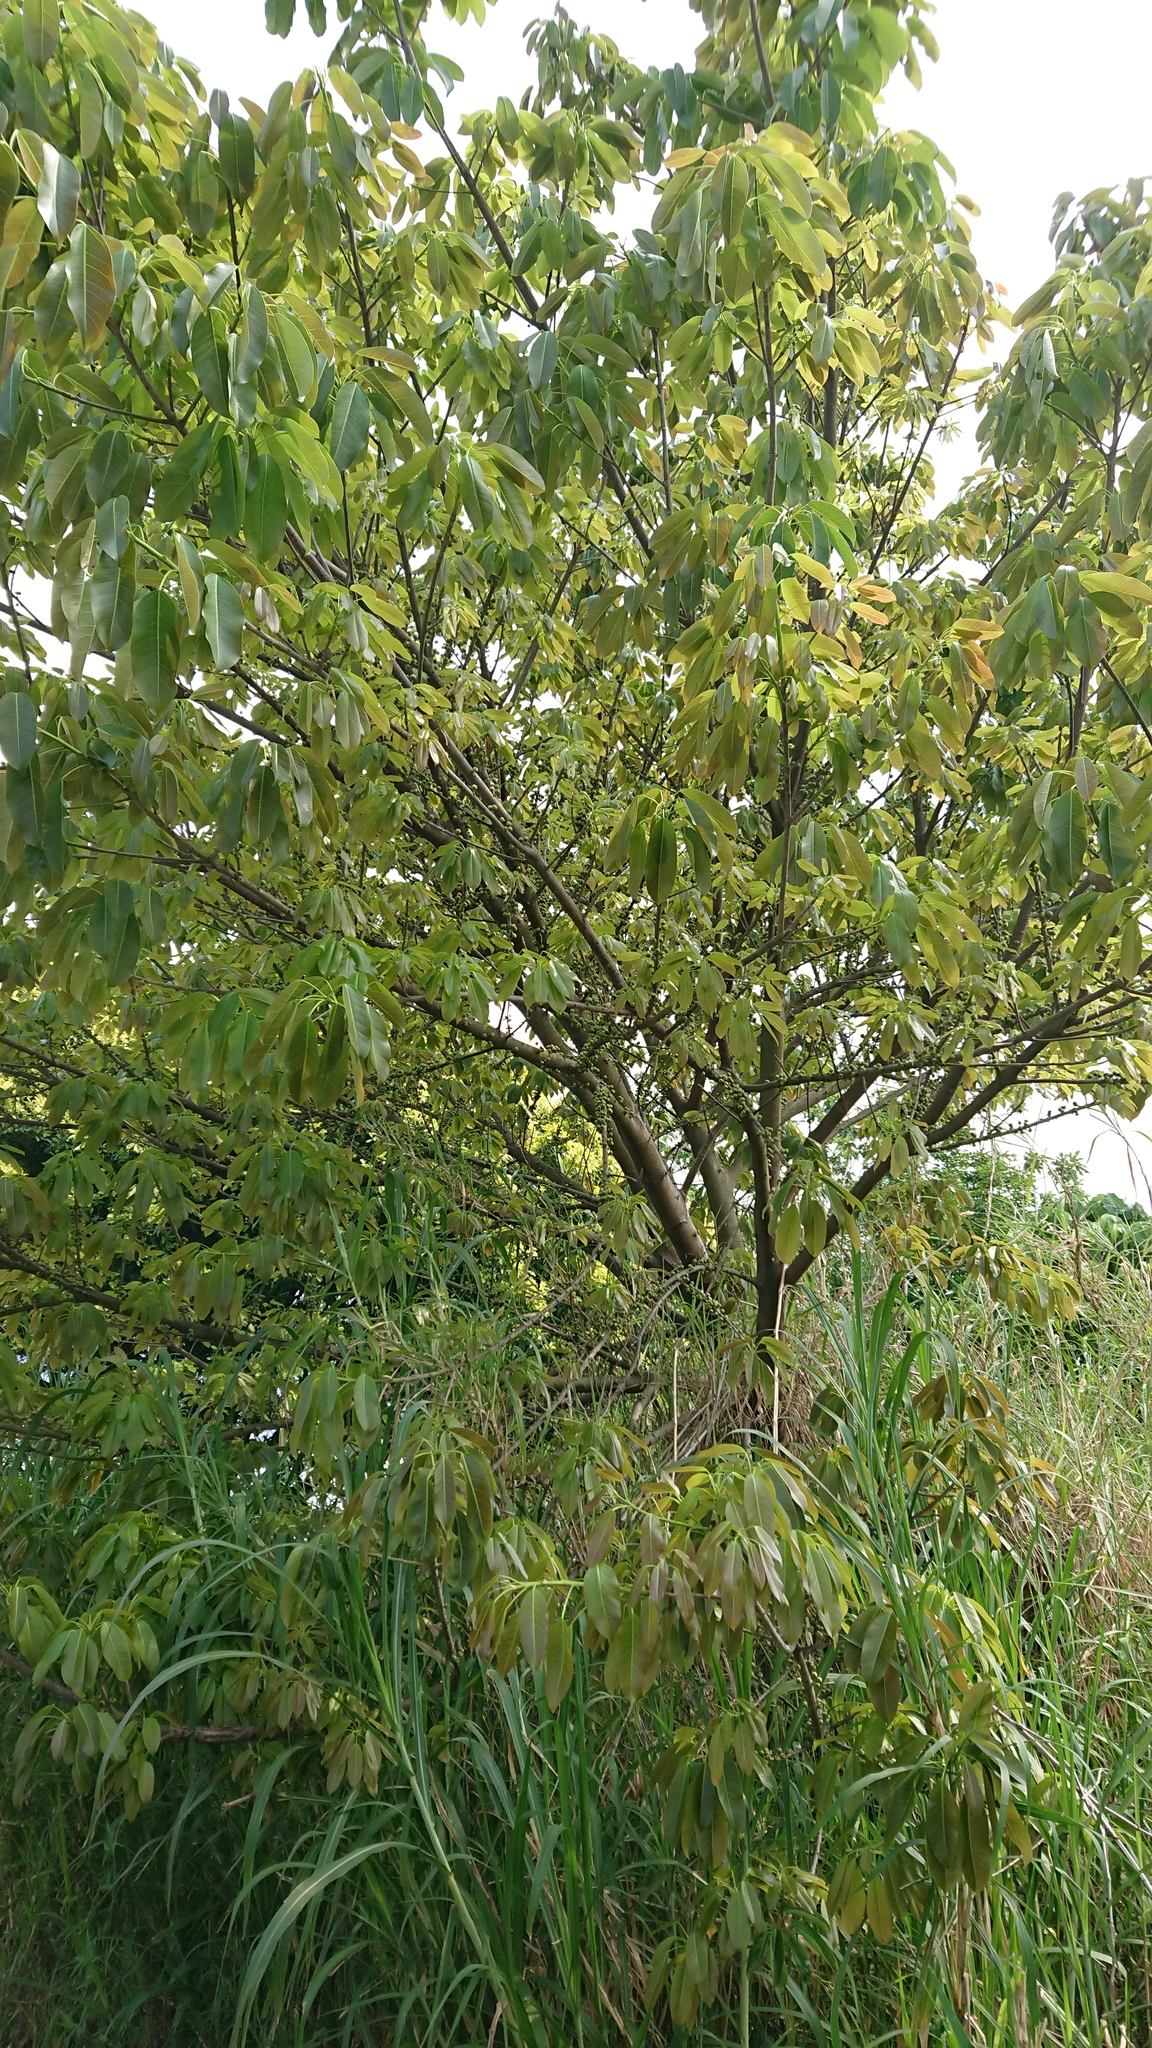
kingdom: Plantae
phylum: Tracheophyta
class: Magnoliopsida
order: Rosales
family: Moraceae
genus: Ficus
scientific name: Ficus subpisocarpa
